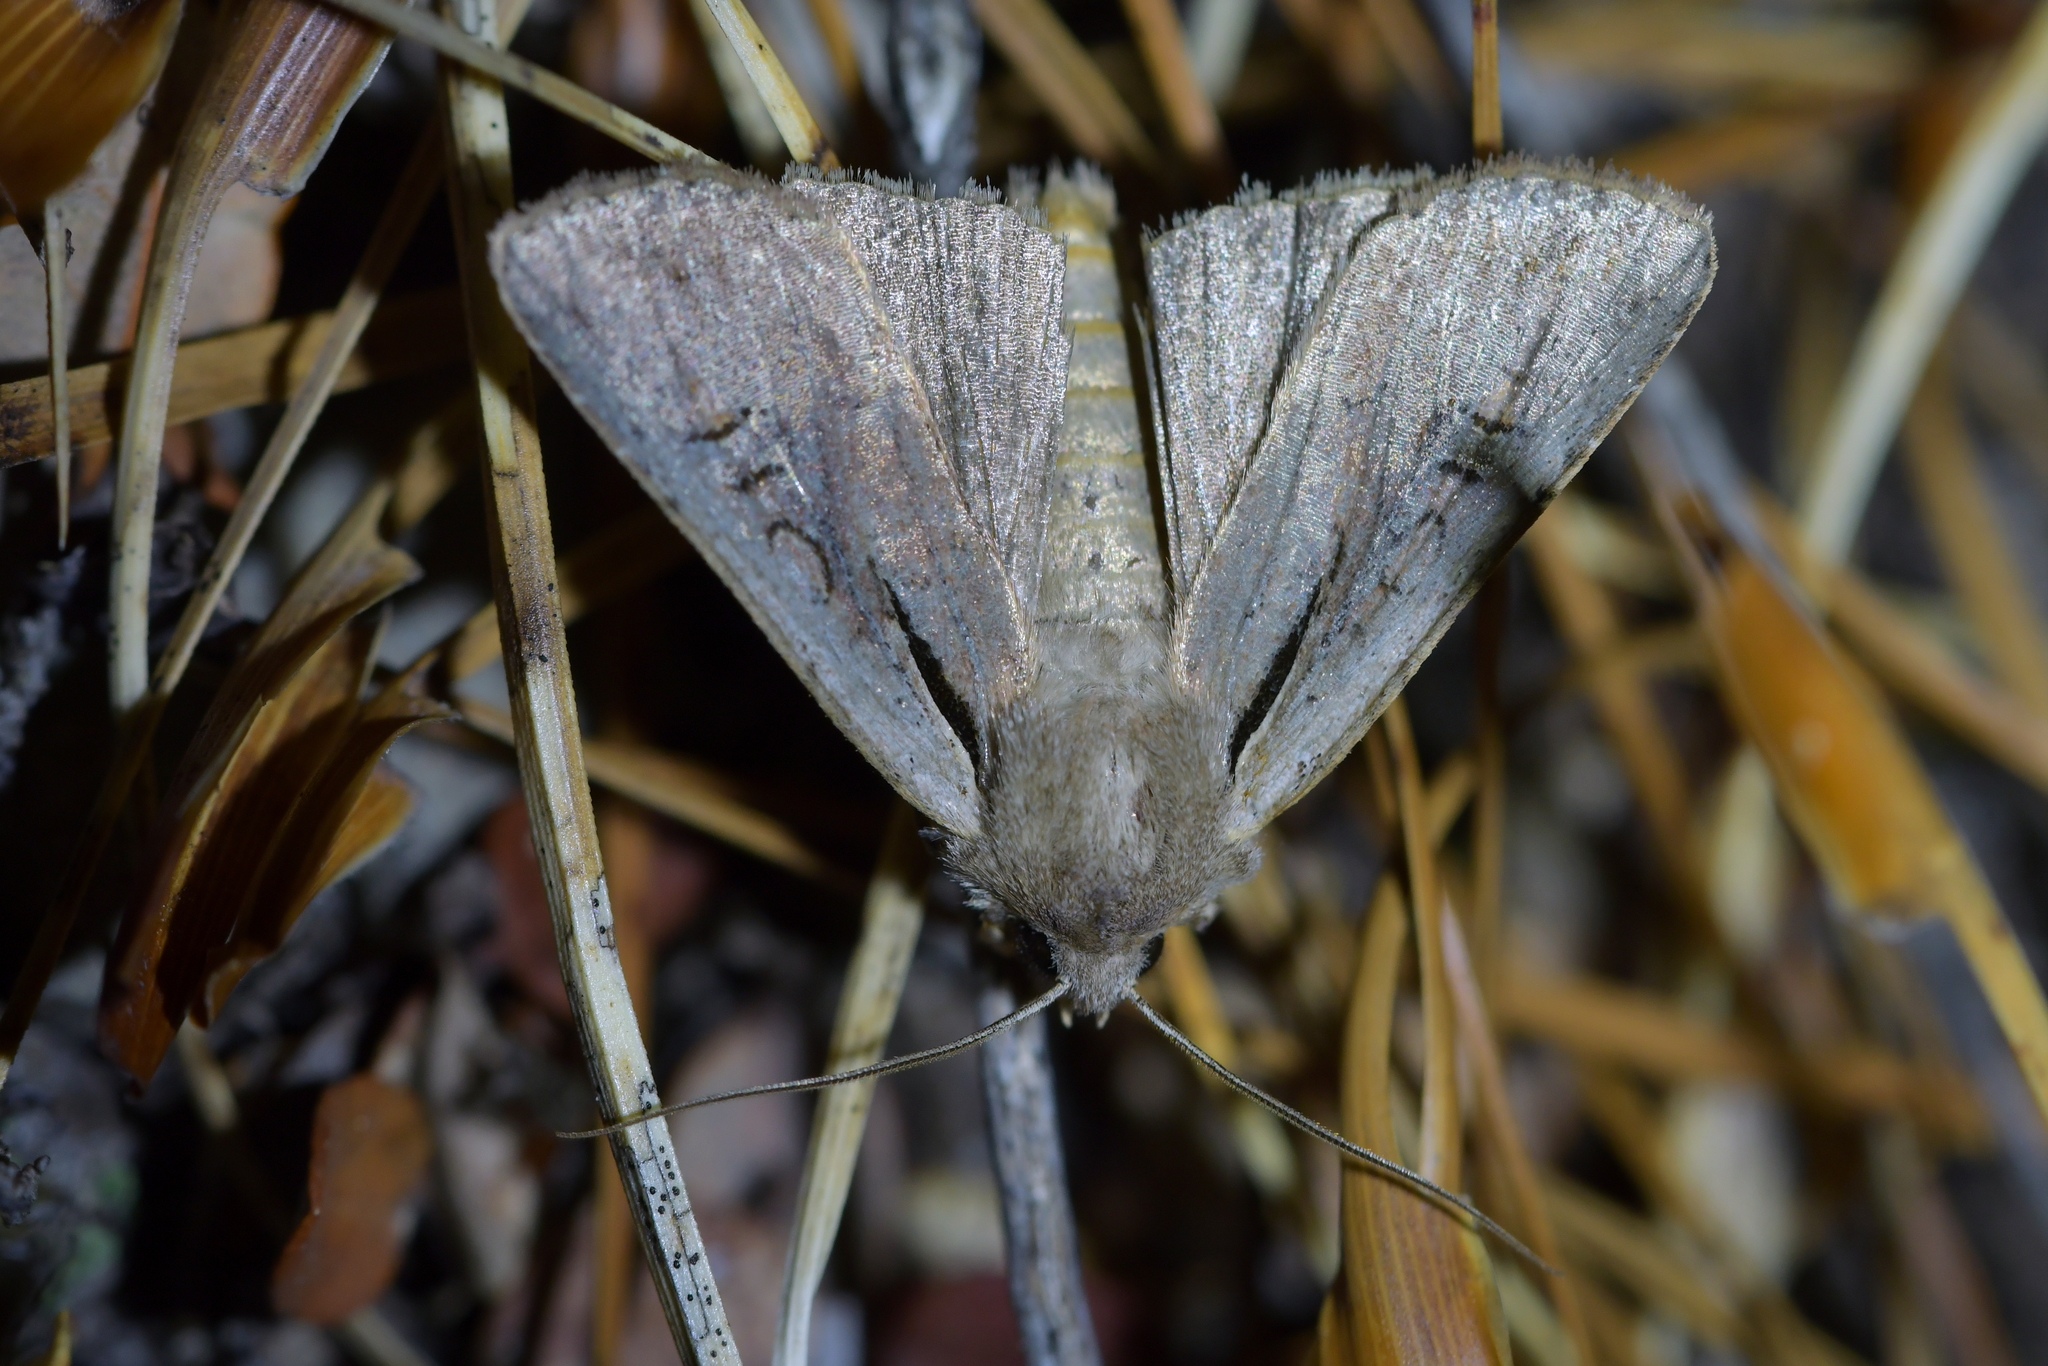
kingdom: Animalia
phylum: Arthropoda
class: Insecta
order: Lepidoptera
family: Noctuidae
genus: Ichneutica
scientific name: Ichneutica atristriga
